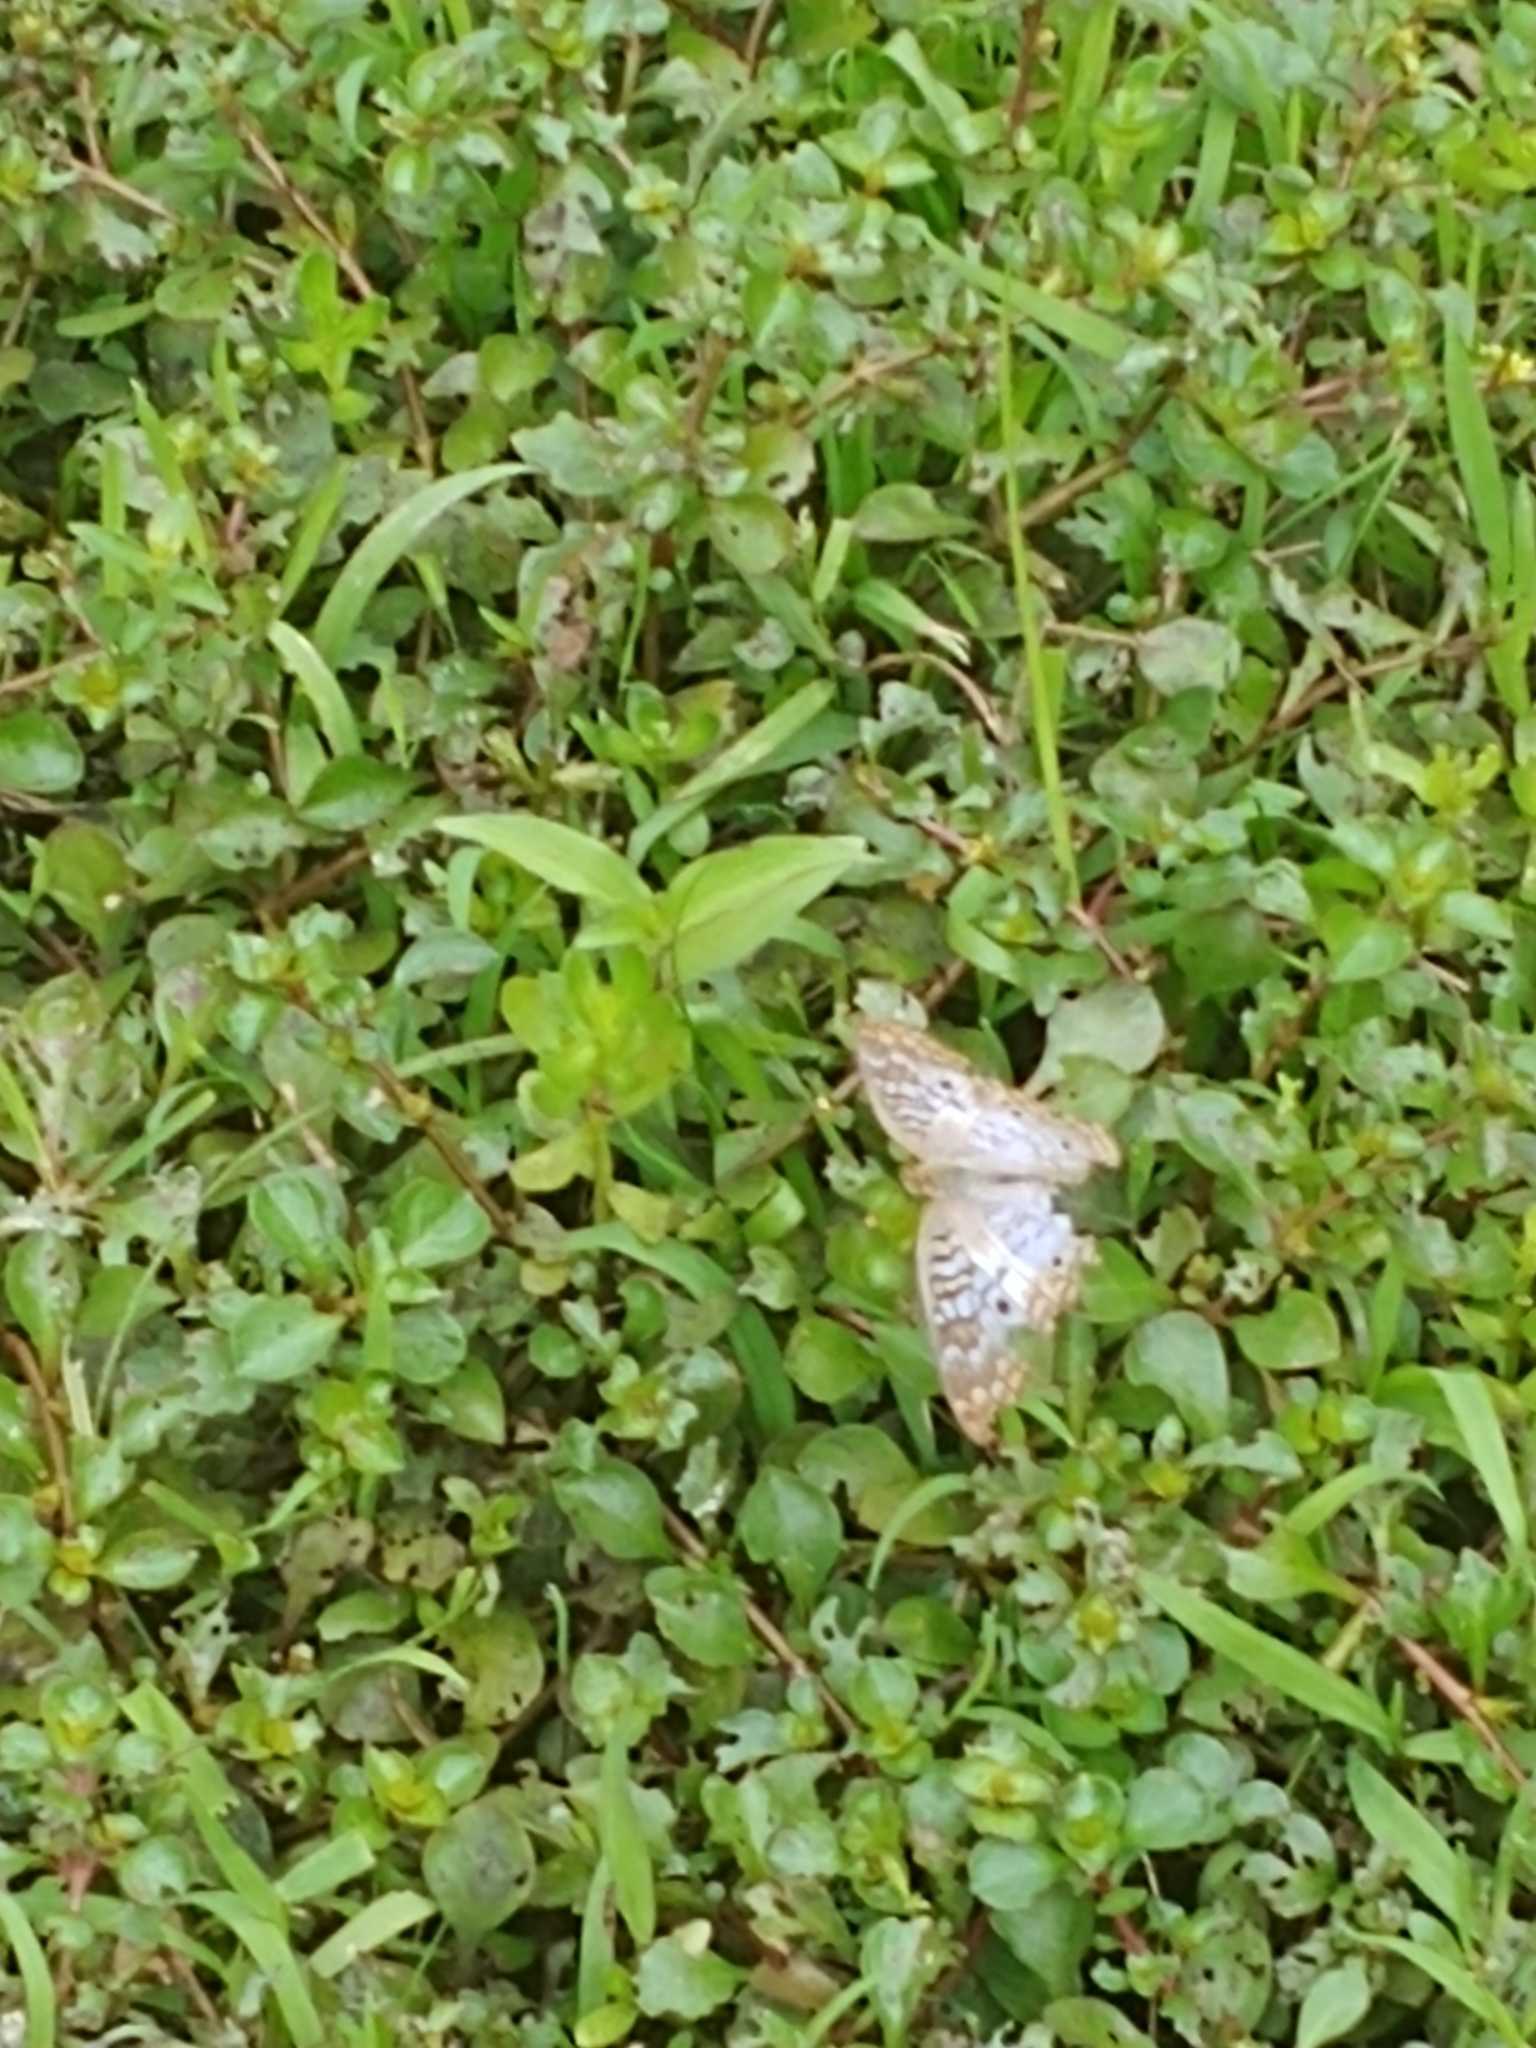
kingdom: Animalia
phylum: Arthropoda
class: Insecta
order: Lepidoptera
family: Nymphalidae
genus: Anartia
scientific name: Anartia jatrophae
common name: White peacock
